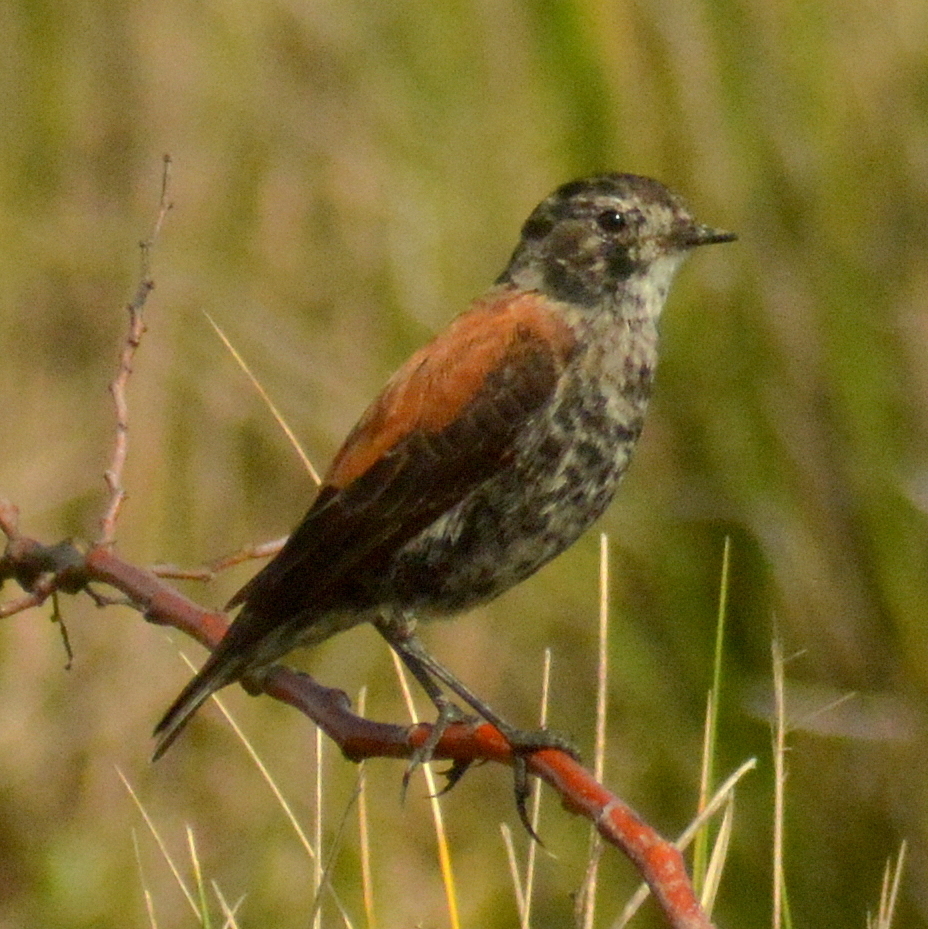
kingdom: Animalia
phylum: Chordata
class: Aves
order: Passeriformes
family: Tyrannidae
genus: Lessonia
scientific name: Lessonia rufa
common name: Austral negrito
